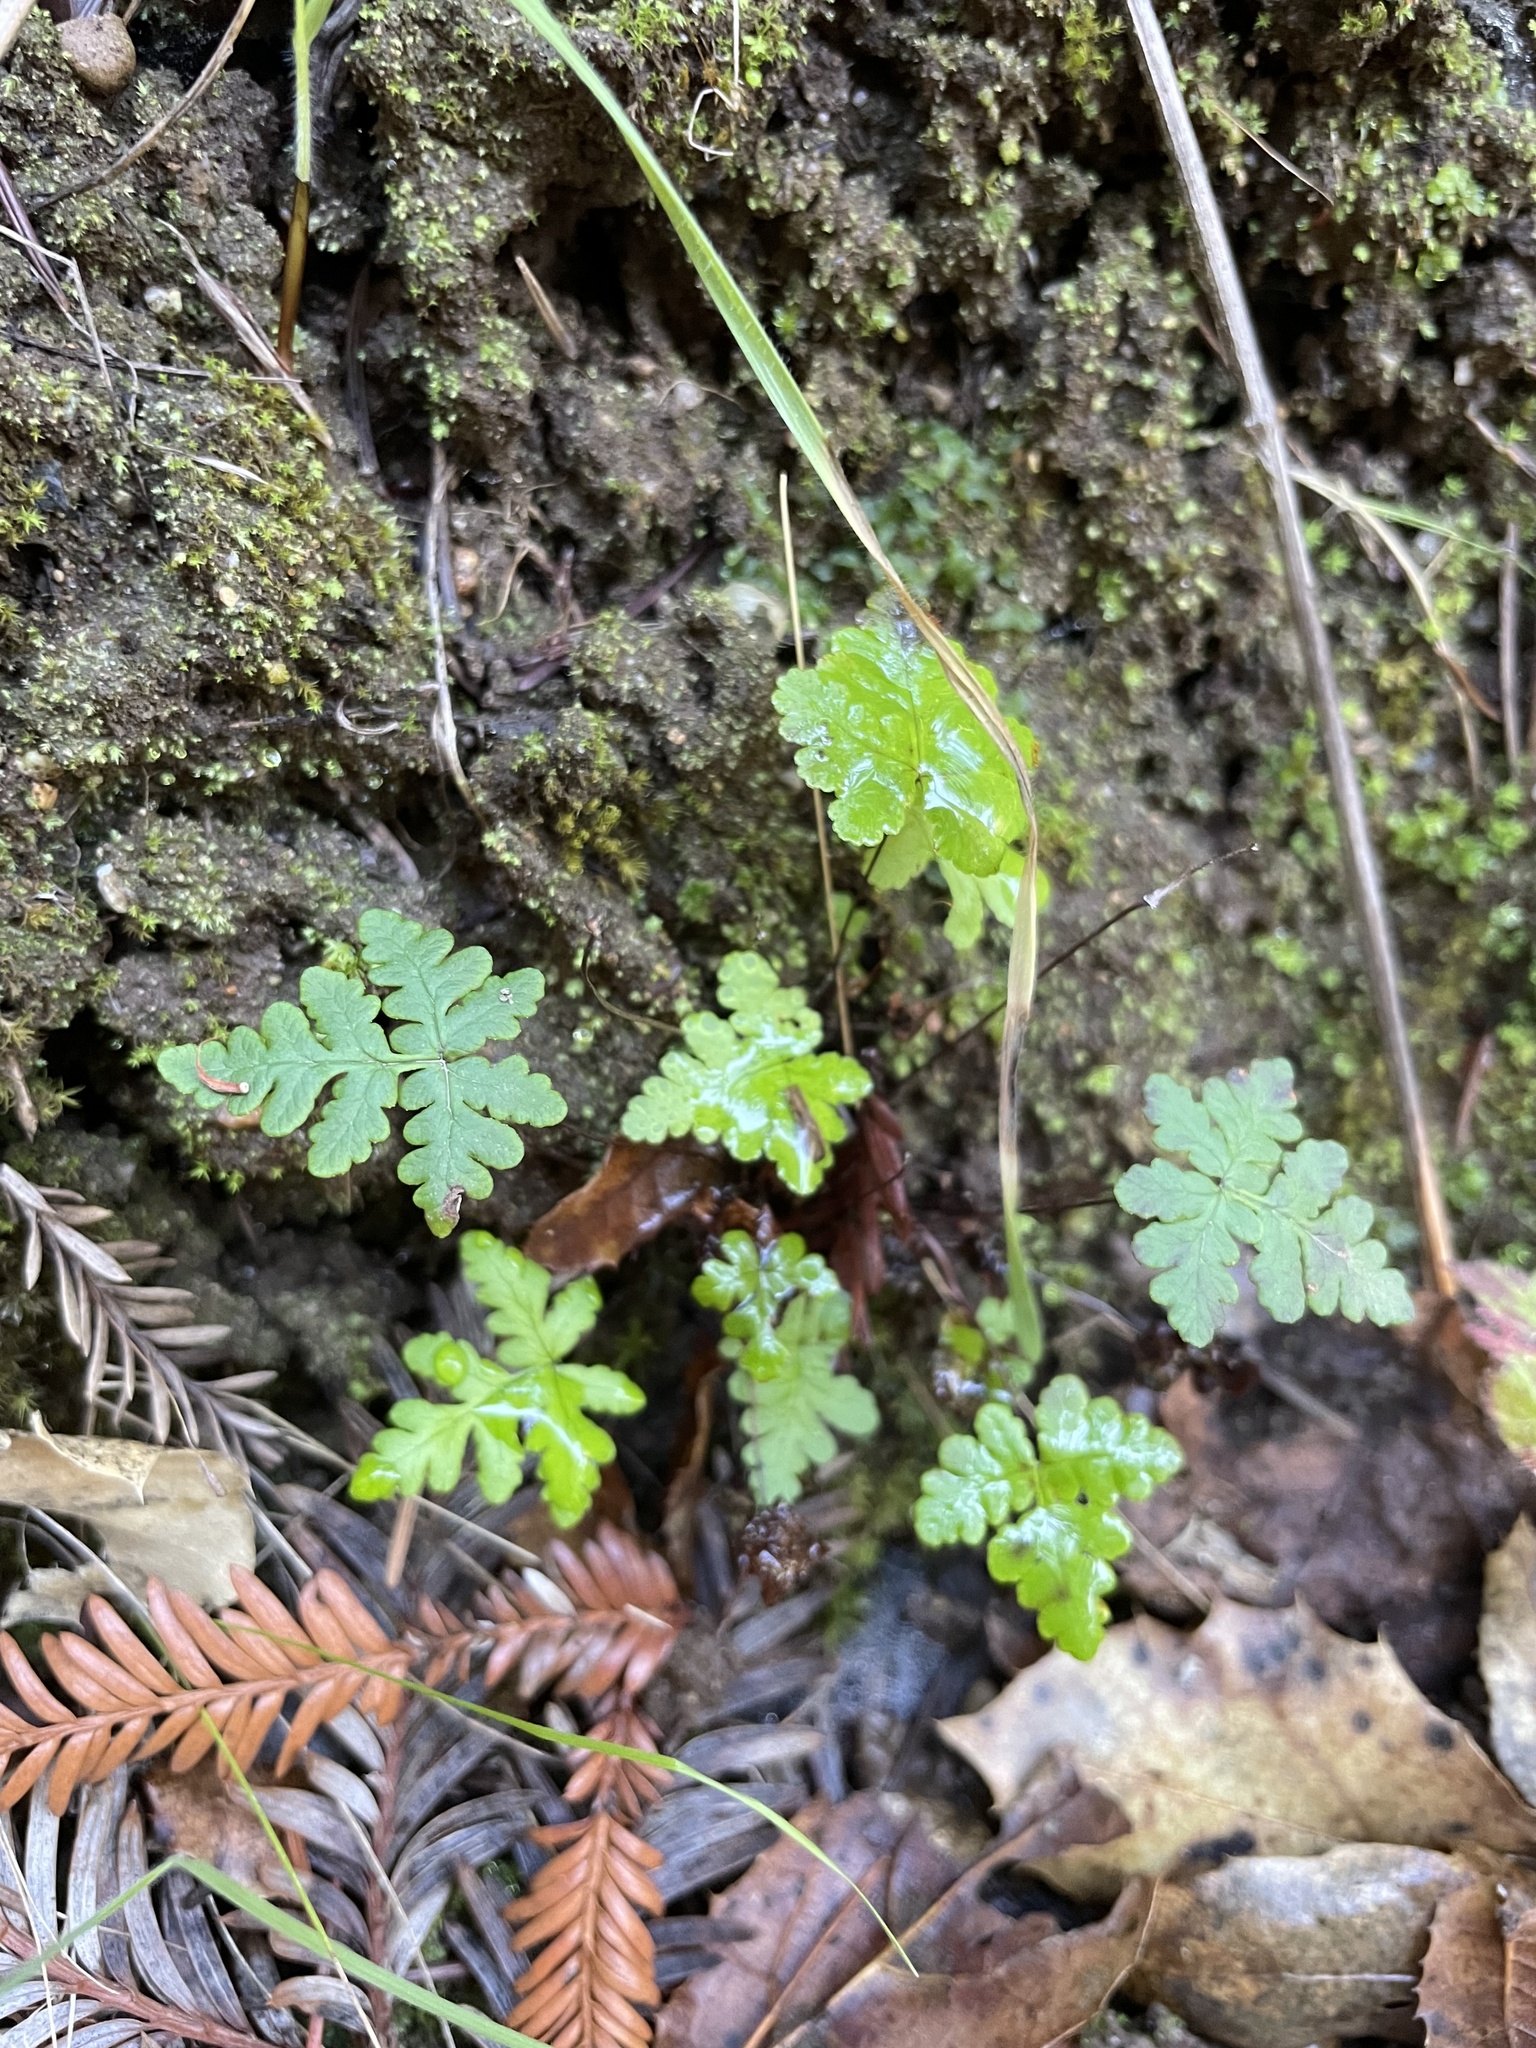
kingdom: Plantae
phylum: Tracheophyta
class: Polypodiopsida
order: Polypodiales
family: Pteridaceae
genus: Pentagramma
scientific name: Pentagramma triangularis
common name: Gold fern
